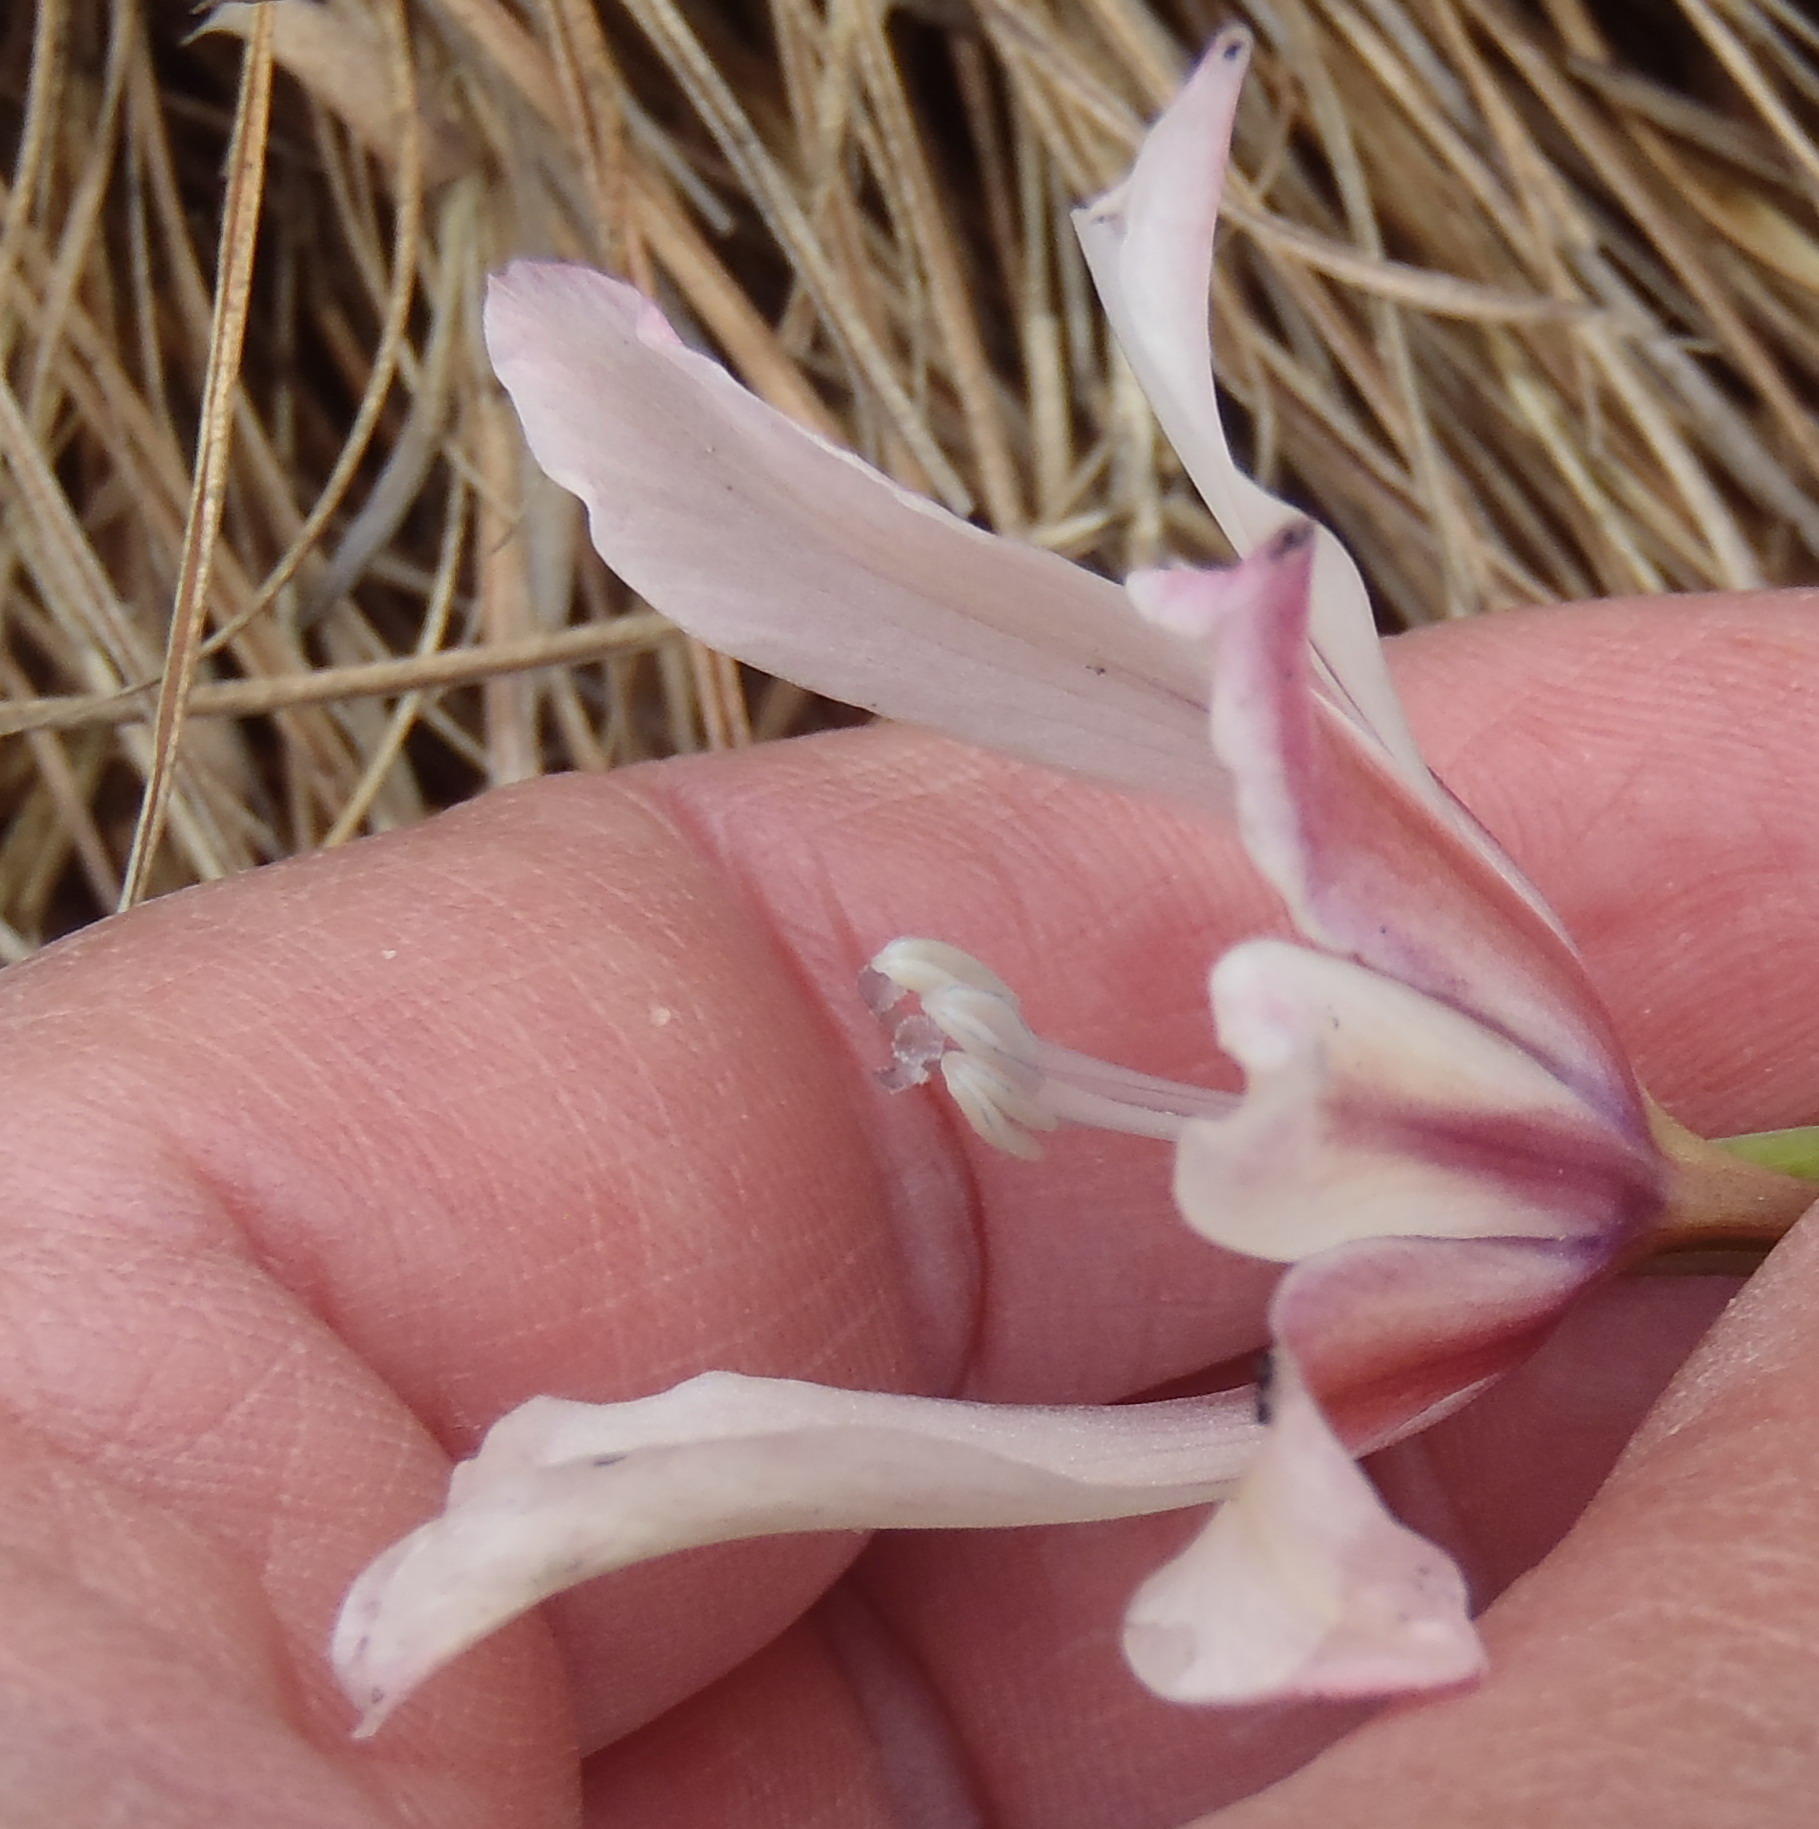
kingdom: Plantae
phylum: Tracheophyta
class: Liliopsida
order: Asparagales
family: Iridaceae
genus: Gladiolus
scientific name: Gladiolus floribundus
